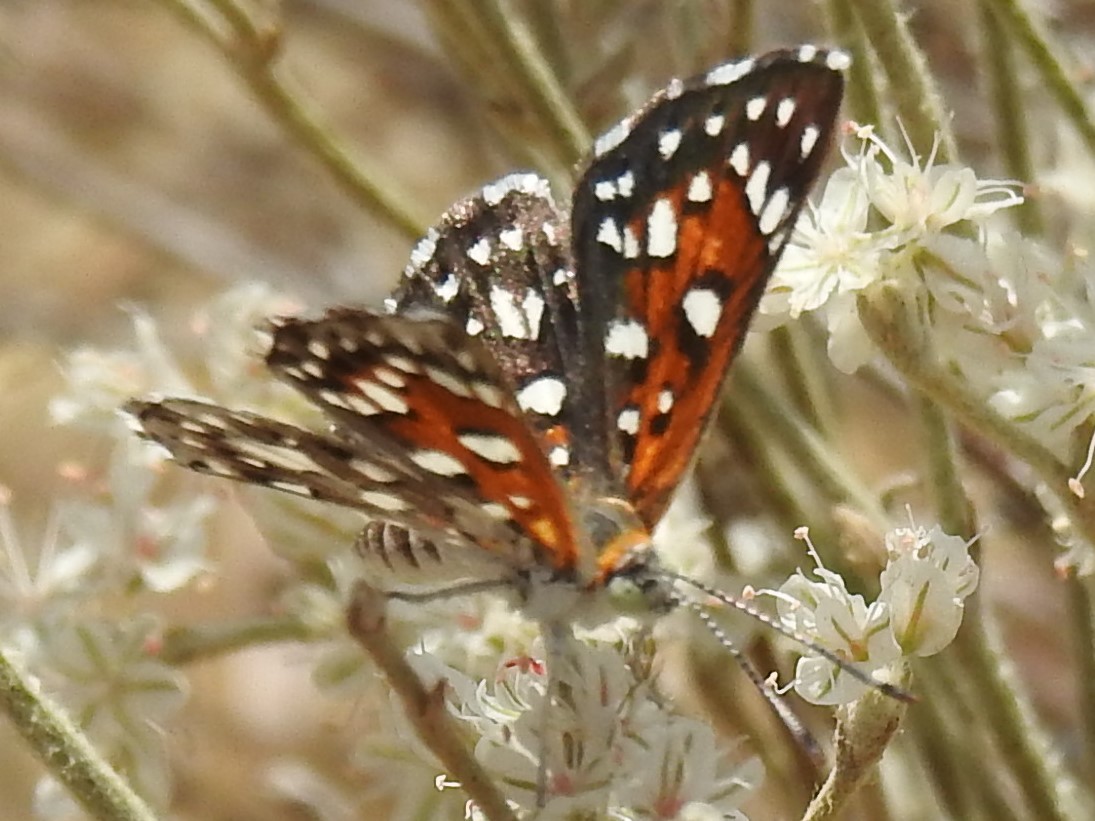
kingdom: Animalia
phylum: Arthropoda
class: Insecta
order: Lepidoptera
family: Riodinidae
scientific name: Riodinidae
